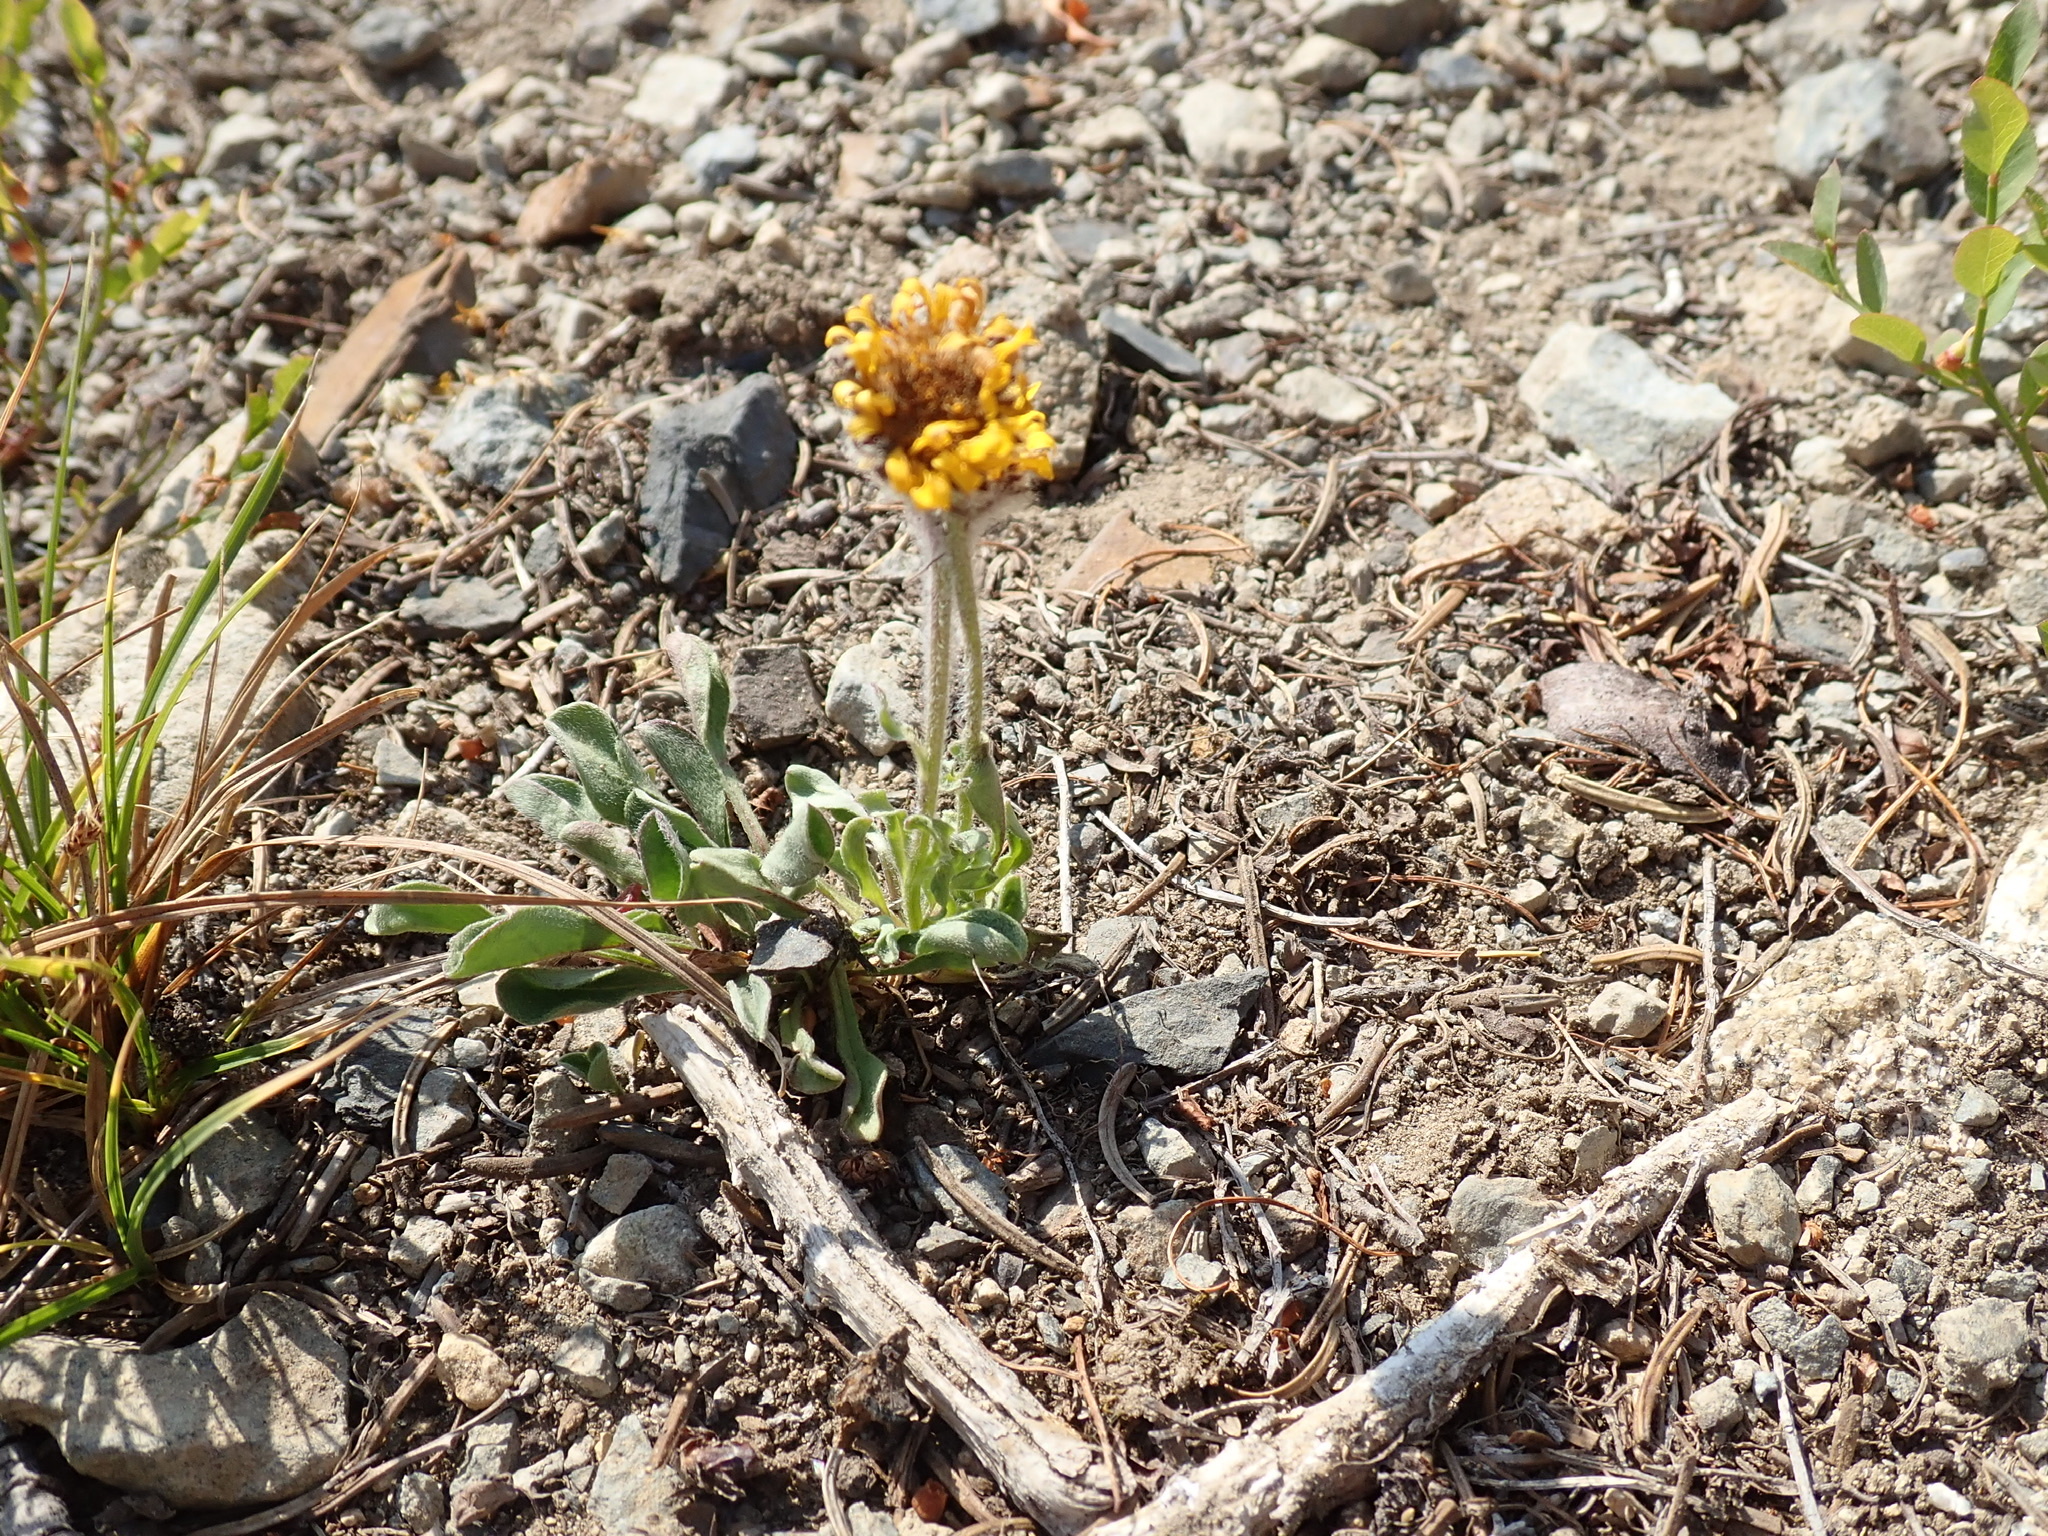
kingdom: Plantae
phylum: Tracheophyta
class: Magnoliopsida
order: Asterales
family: Asteraceae
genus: Erigeron
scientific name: Erigeron aureus
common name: Alpine yellow fleabane
